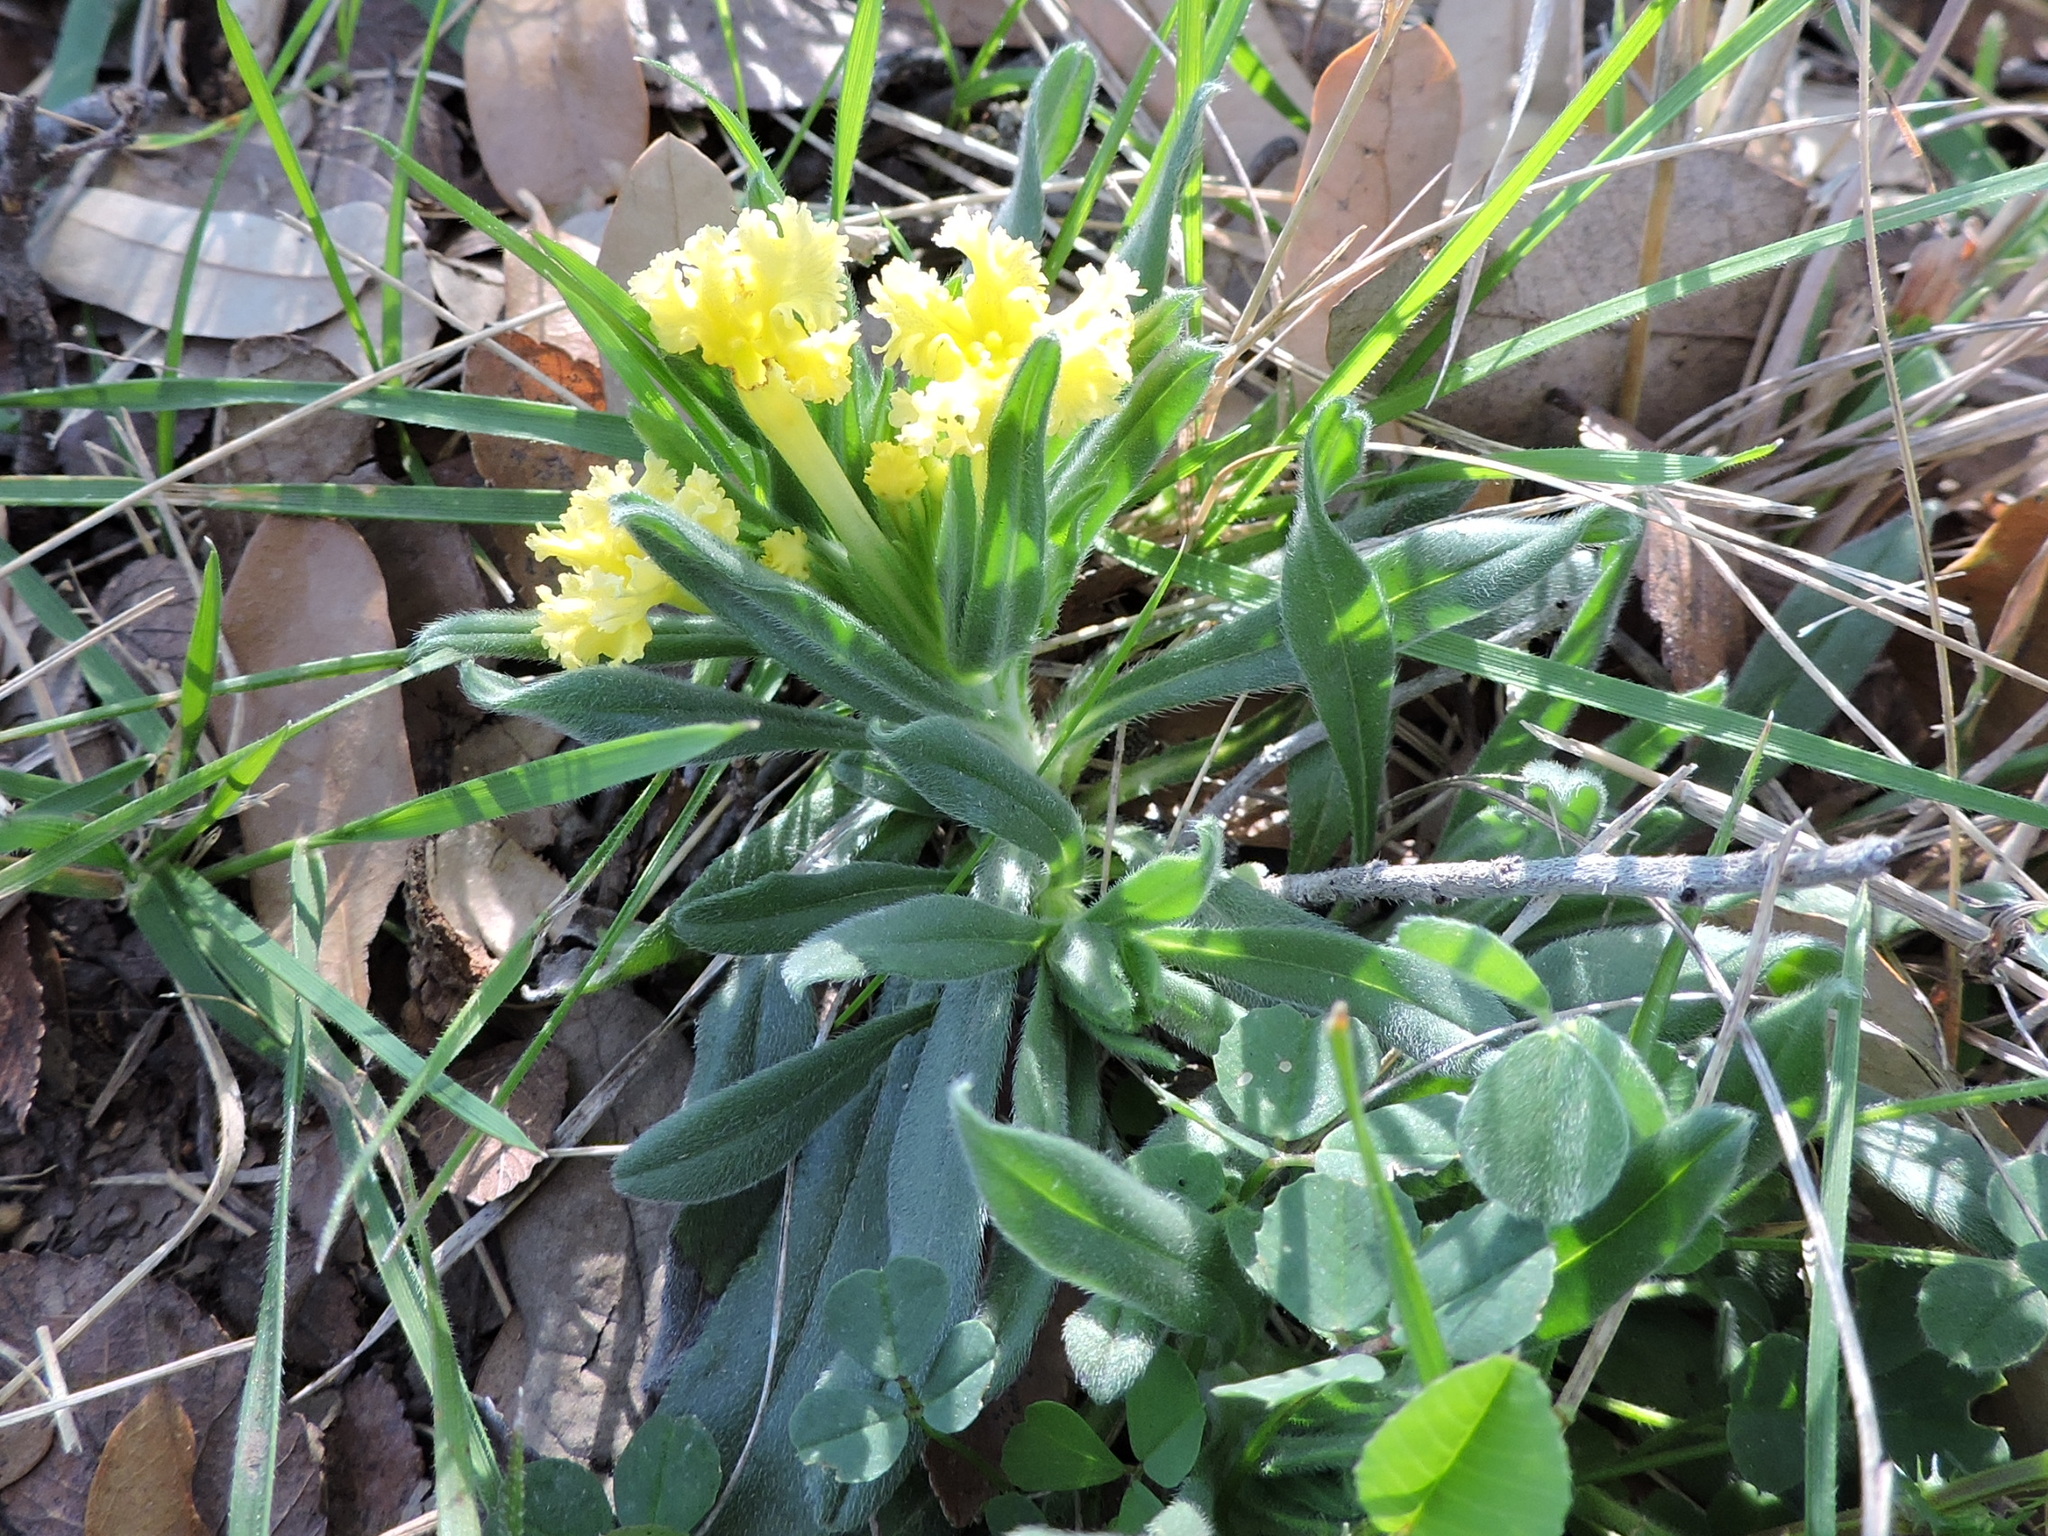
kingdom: Plantae
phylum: Tracheophyta
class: Magnoliopsida
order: Boraginales
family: Boraginaceae
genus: Lithospermum
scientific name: Lithospermum incisum
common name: Fringed gromwell
